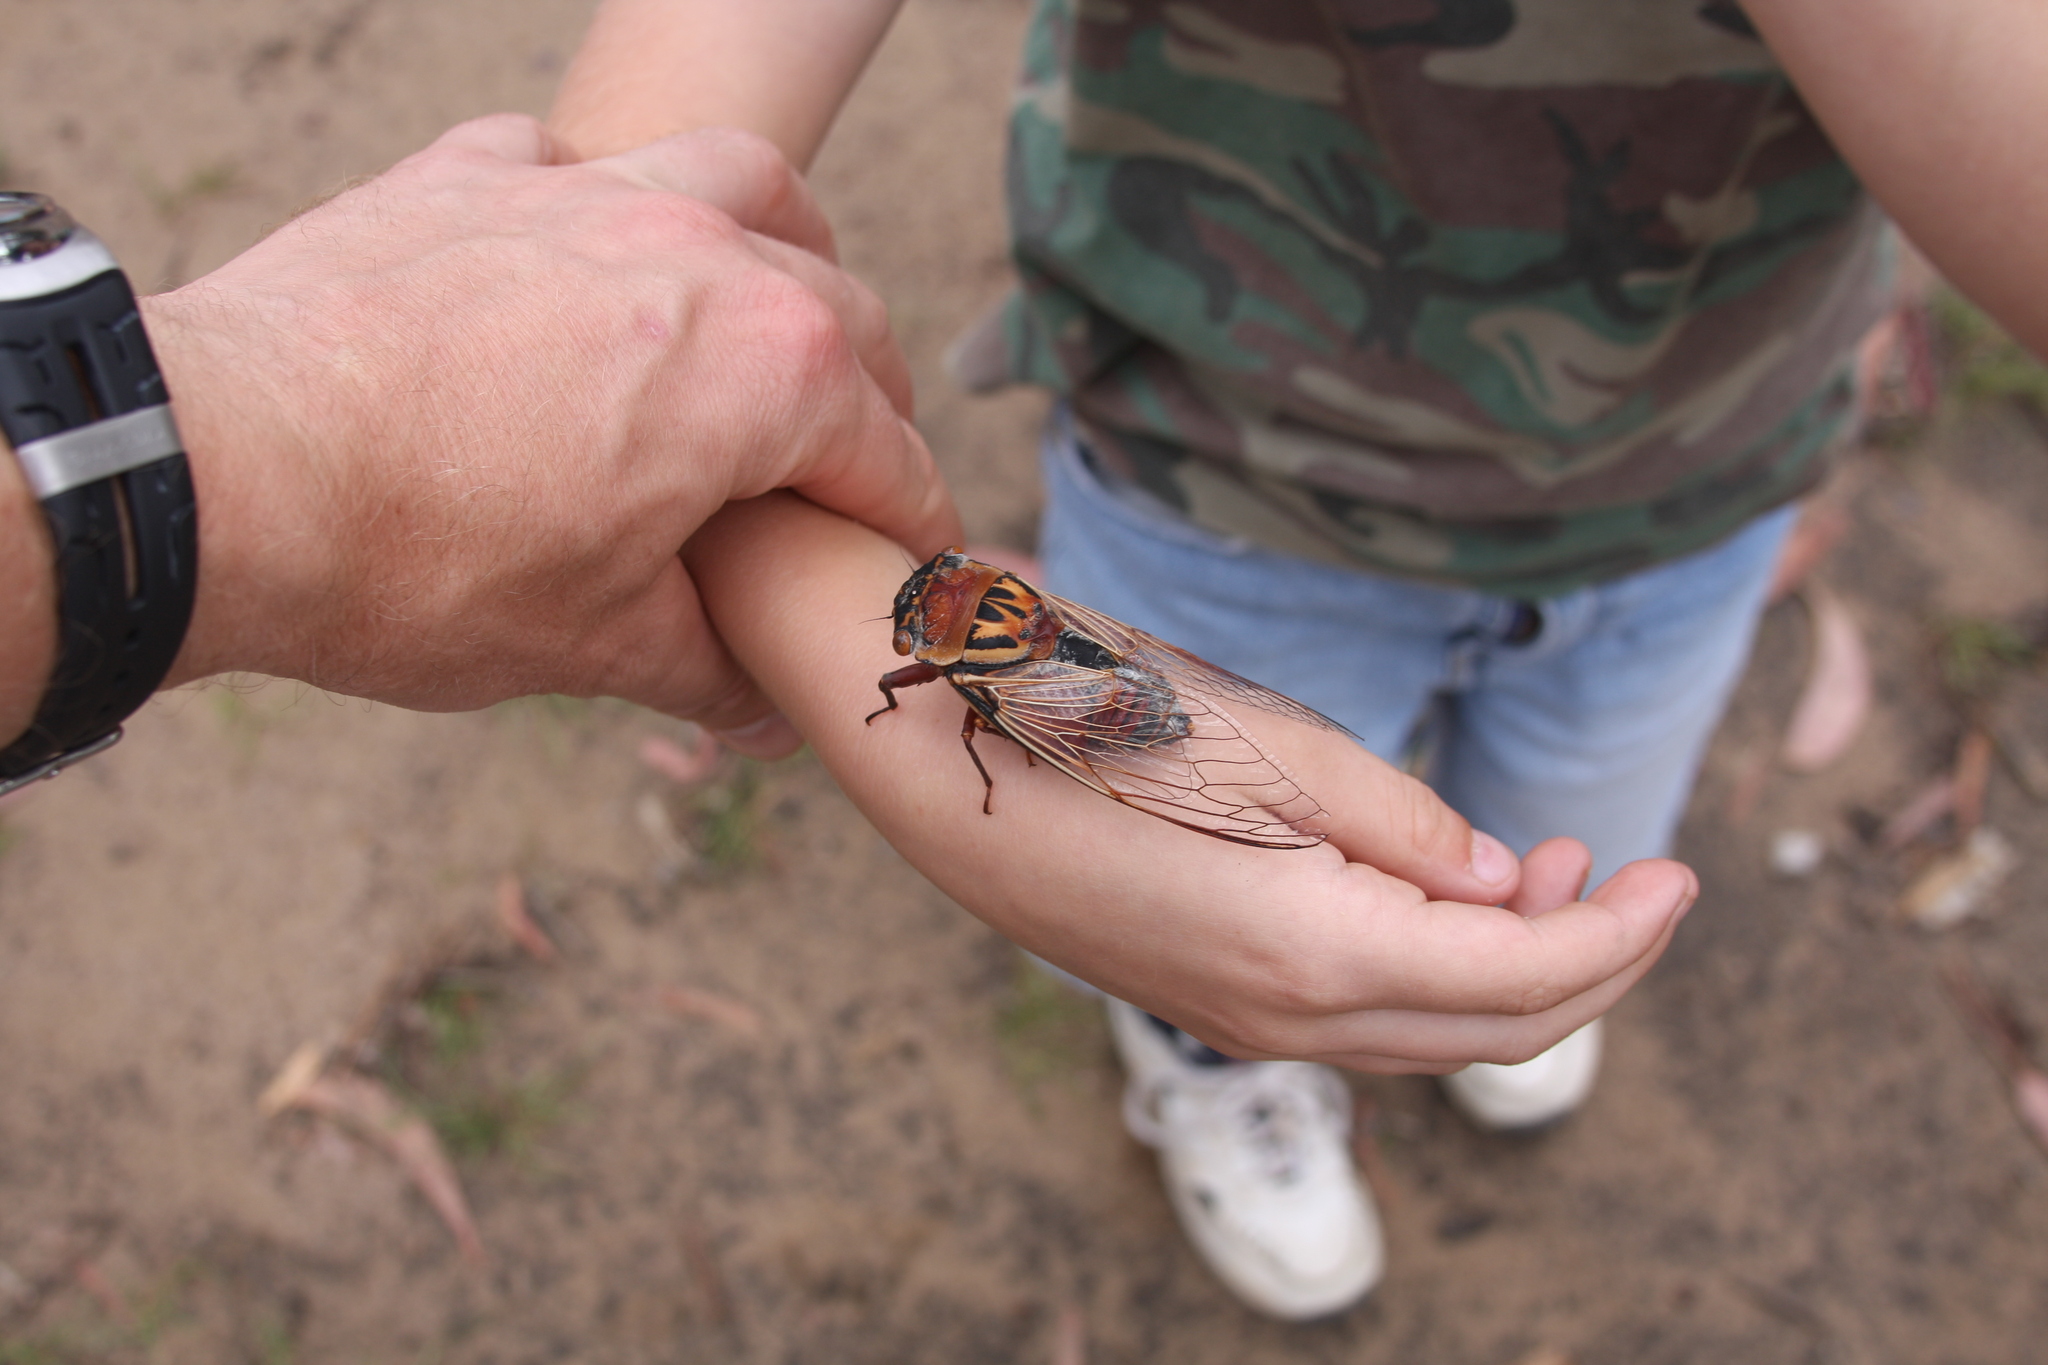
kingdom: Animalia
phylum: Arthropoda
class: Insecta
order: Hemiptera
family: Cicadidae
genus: Thopha
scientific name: Thopha saccata
